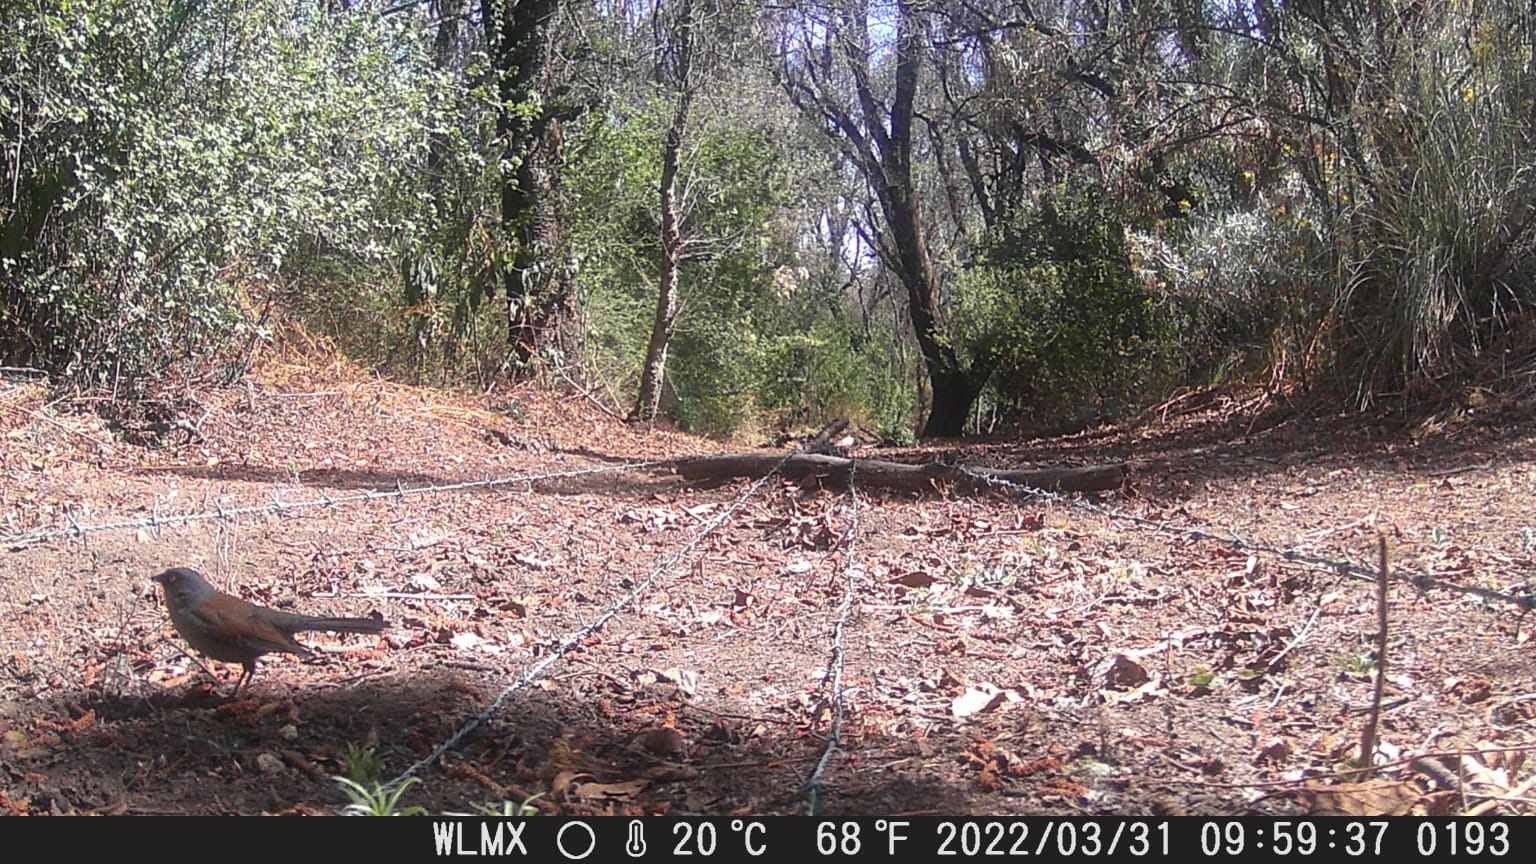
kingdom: Animalia
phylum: Chordata
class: Aves
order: Passeriformes
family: Passerellidae
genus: Junco
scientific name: Junco phaeonotus
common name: Yellow-eyed junco
